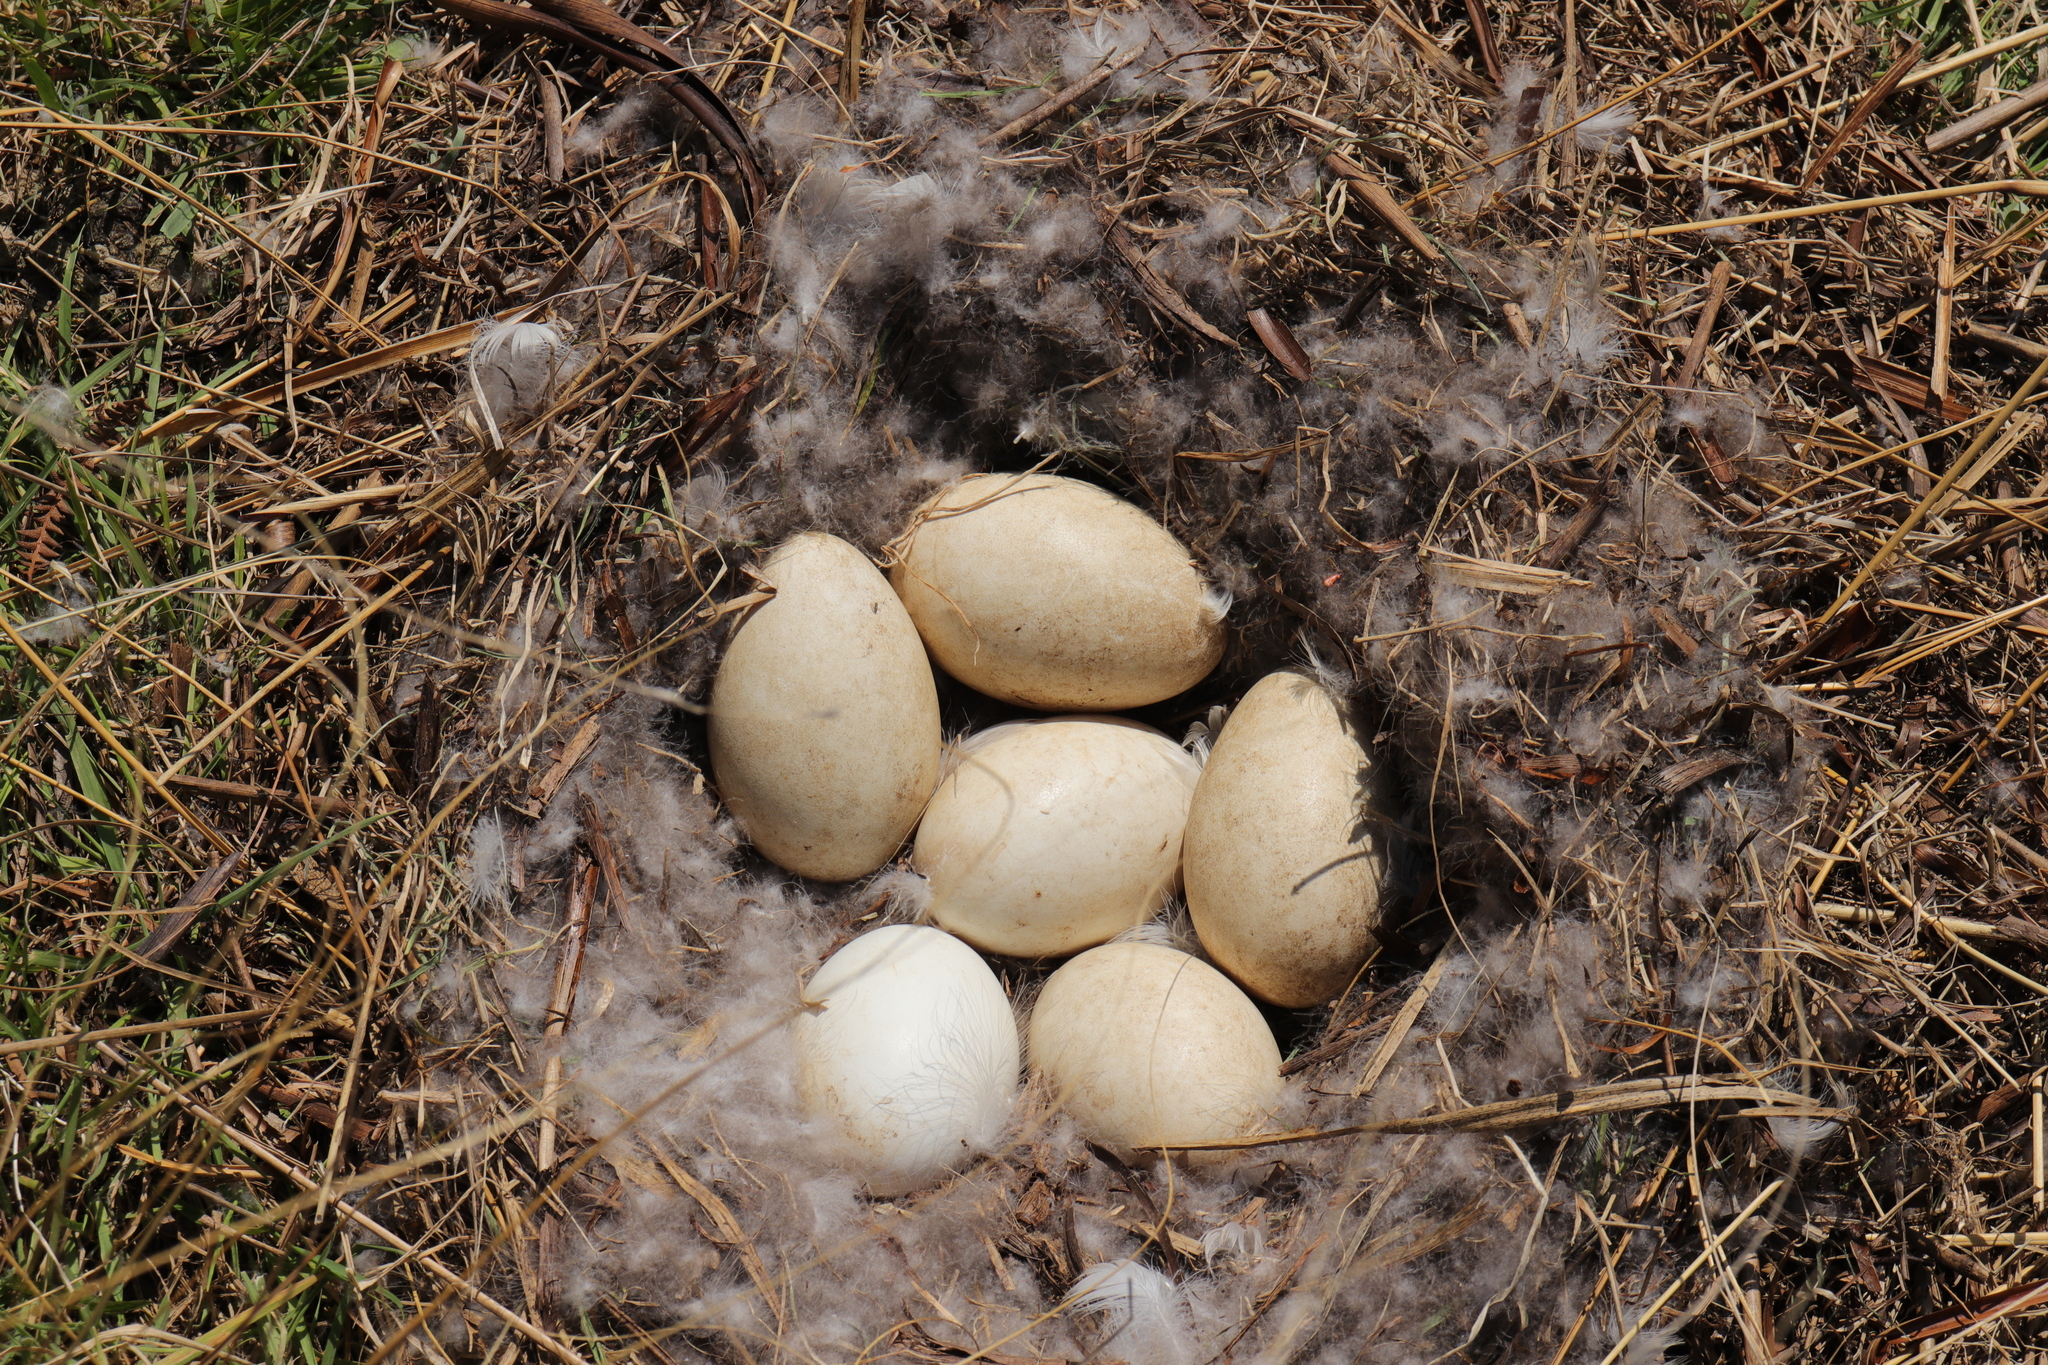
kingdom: Animalia
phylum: Chordata
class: Aves
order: Anseriformes
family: Anatidae
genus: Branta
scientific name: Branta canadensis
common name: Canada goose
